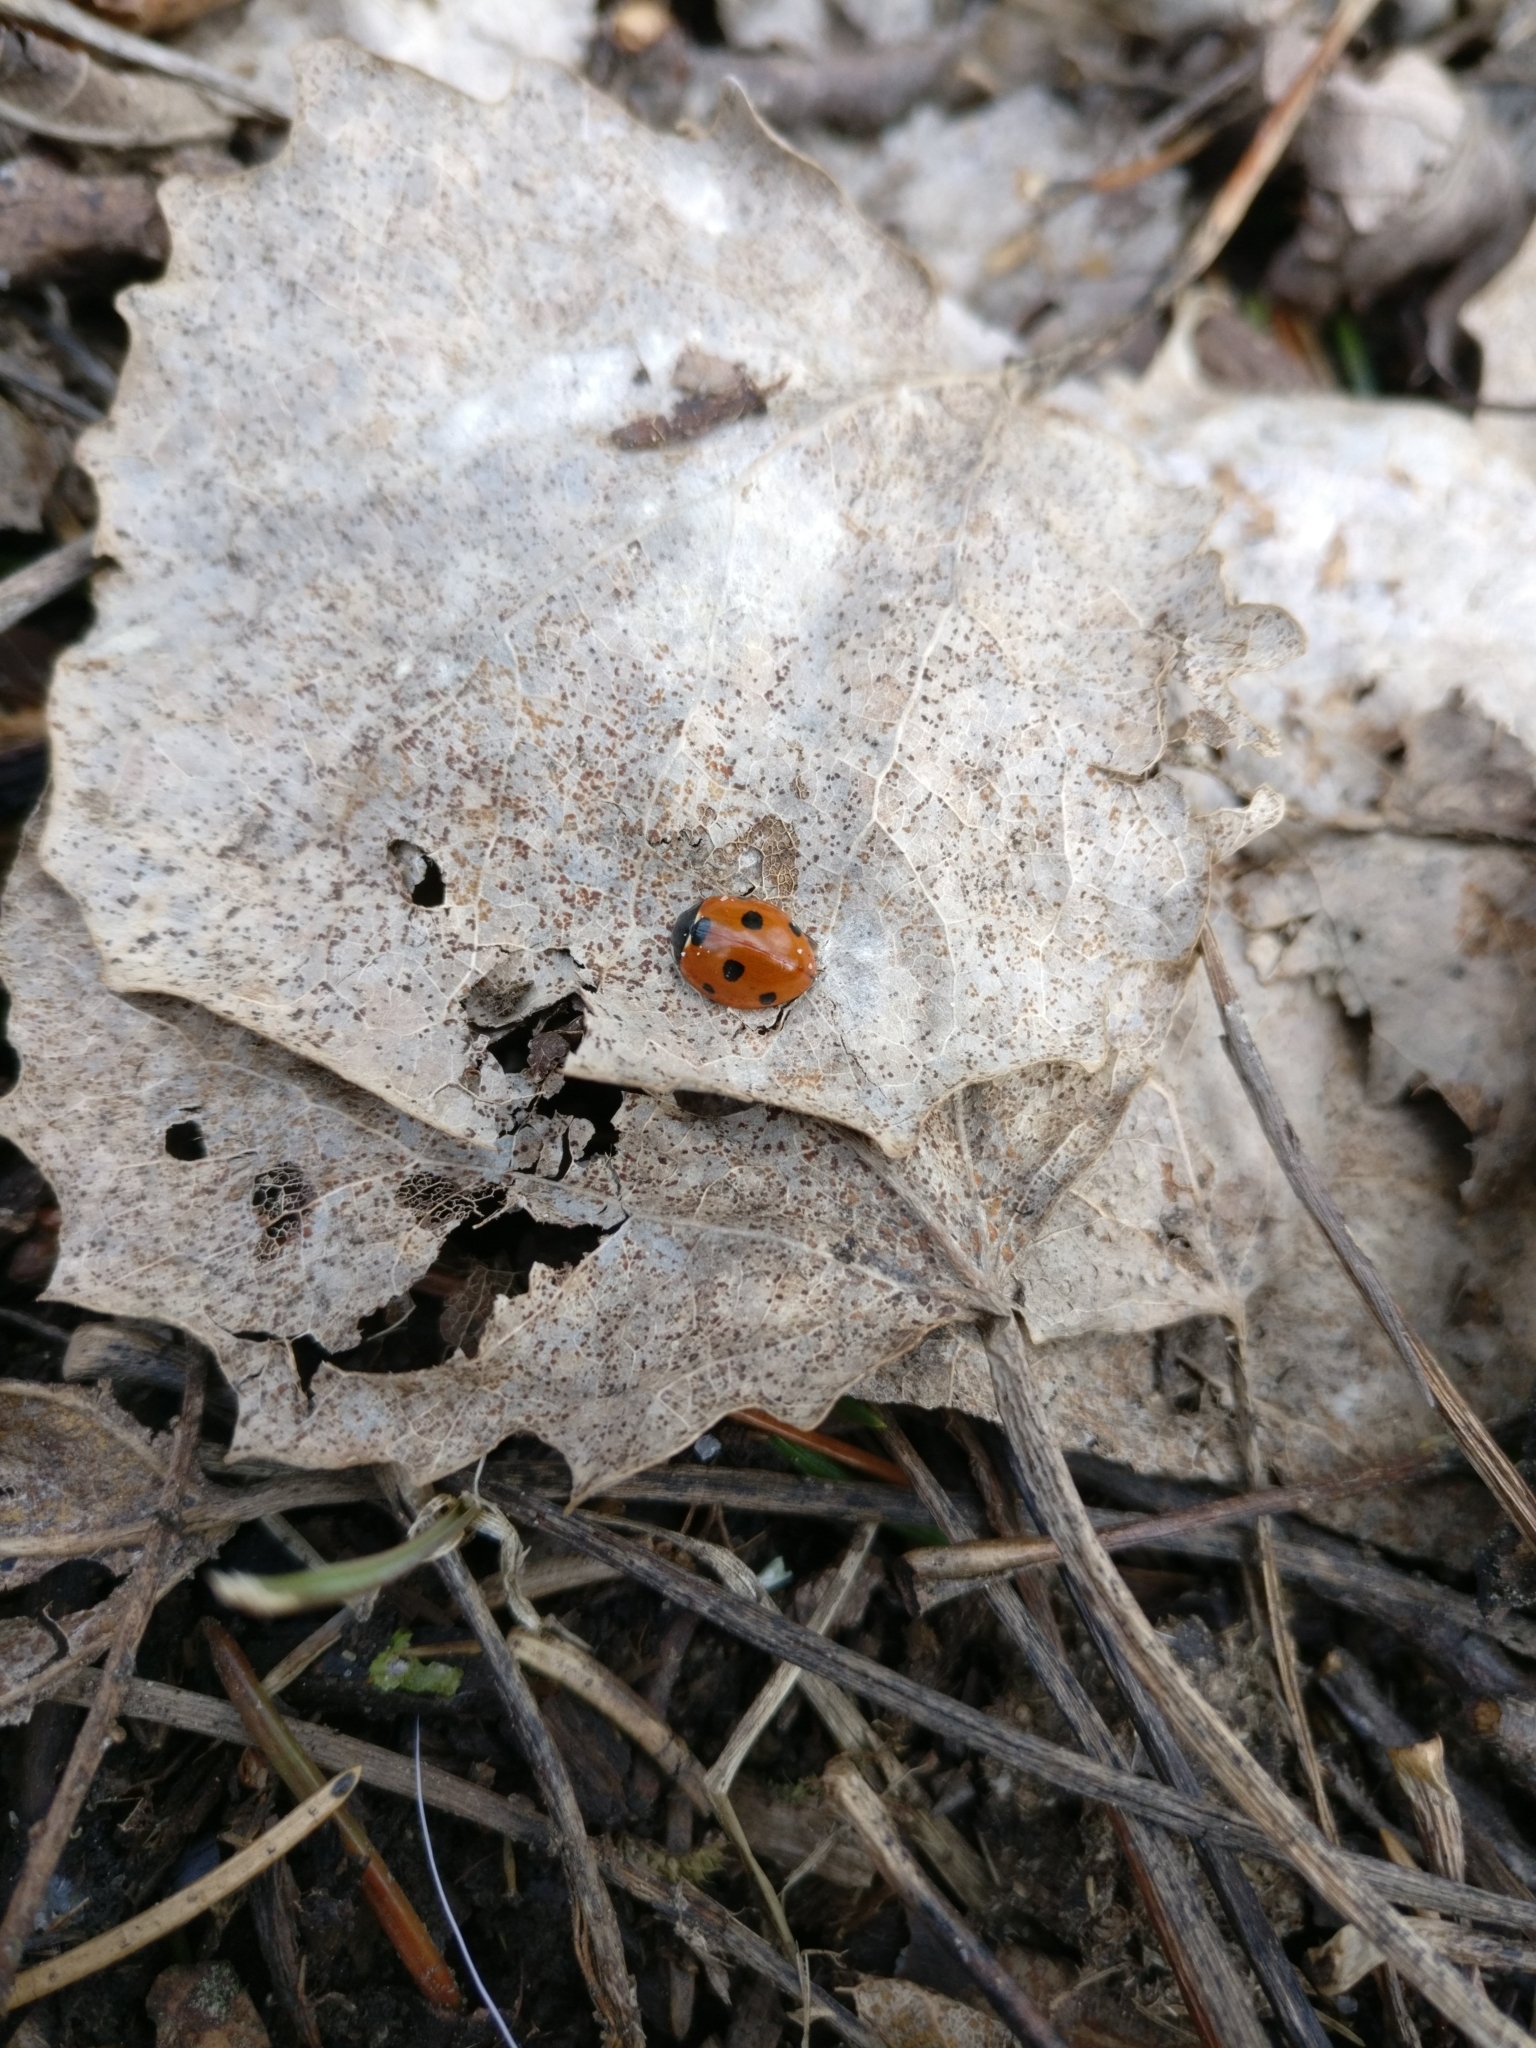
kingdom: Animalia
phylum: Arthropoda
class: Insecta
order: Coleoptera
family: Coccinellidae
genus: Coccinella
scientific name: Coccinella septempunctata
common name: Sevenspotted lady beetle
